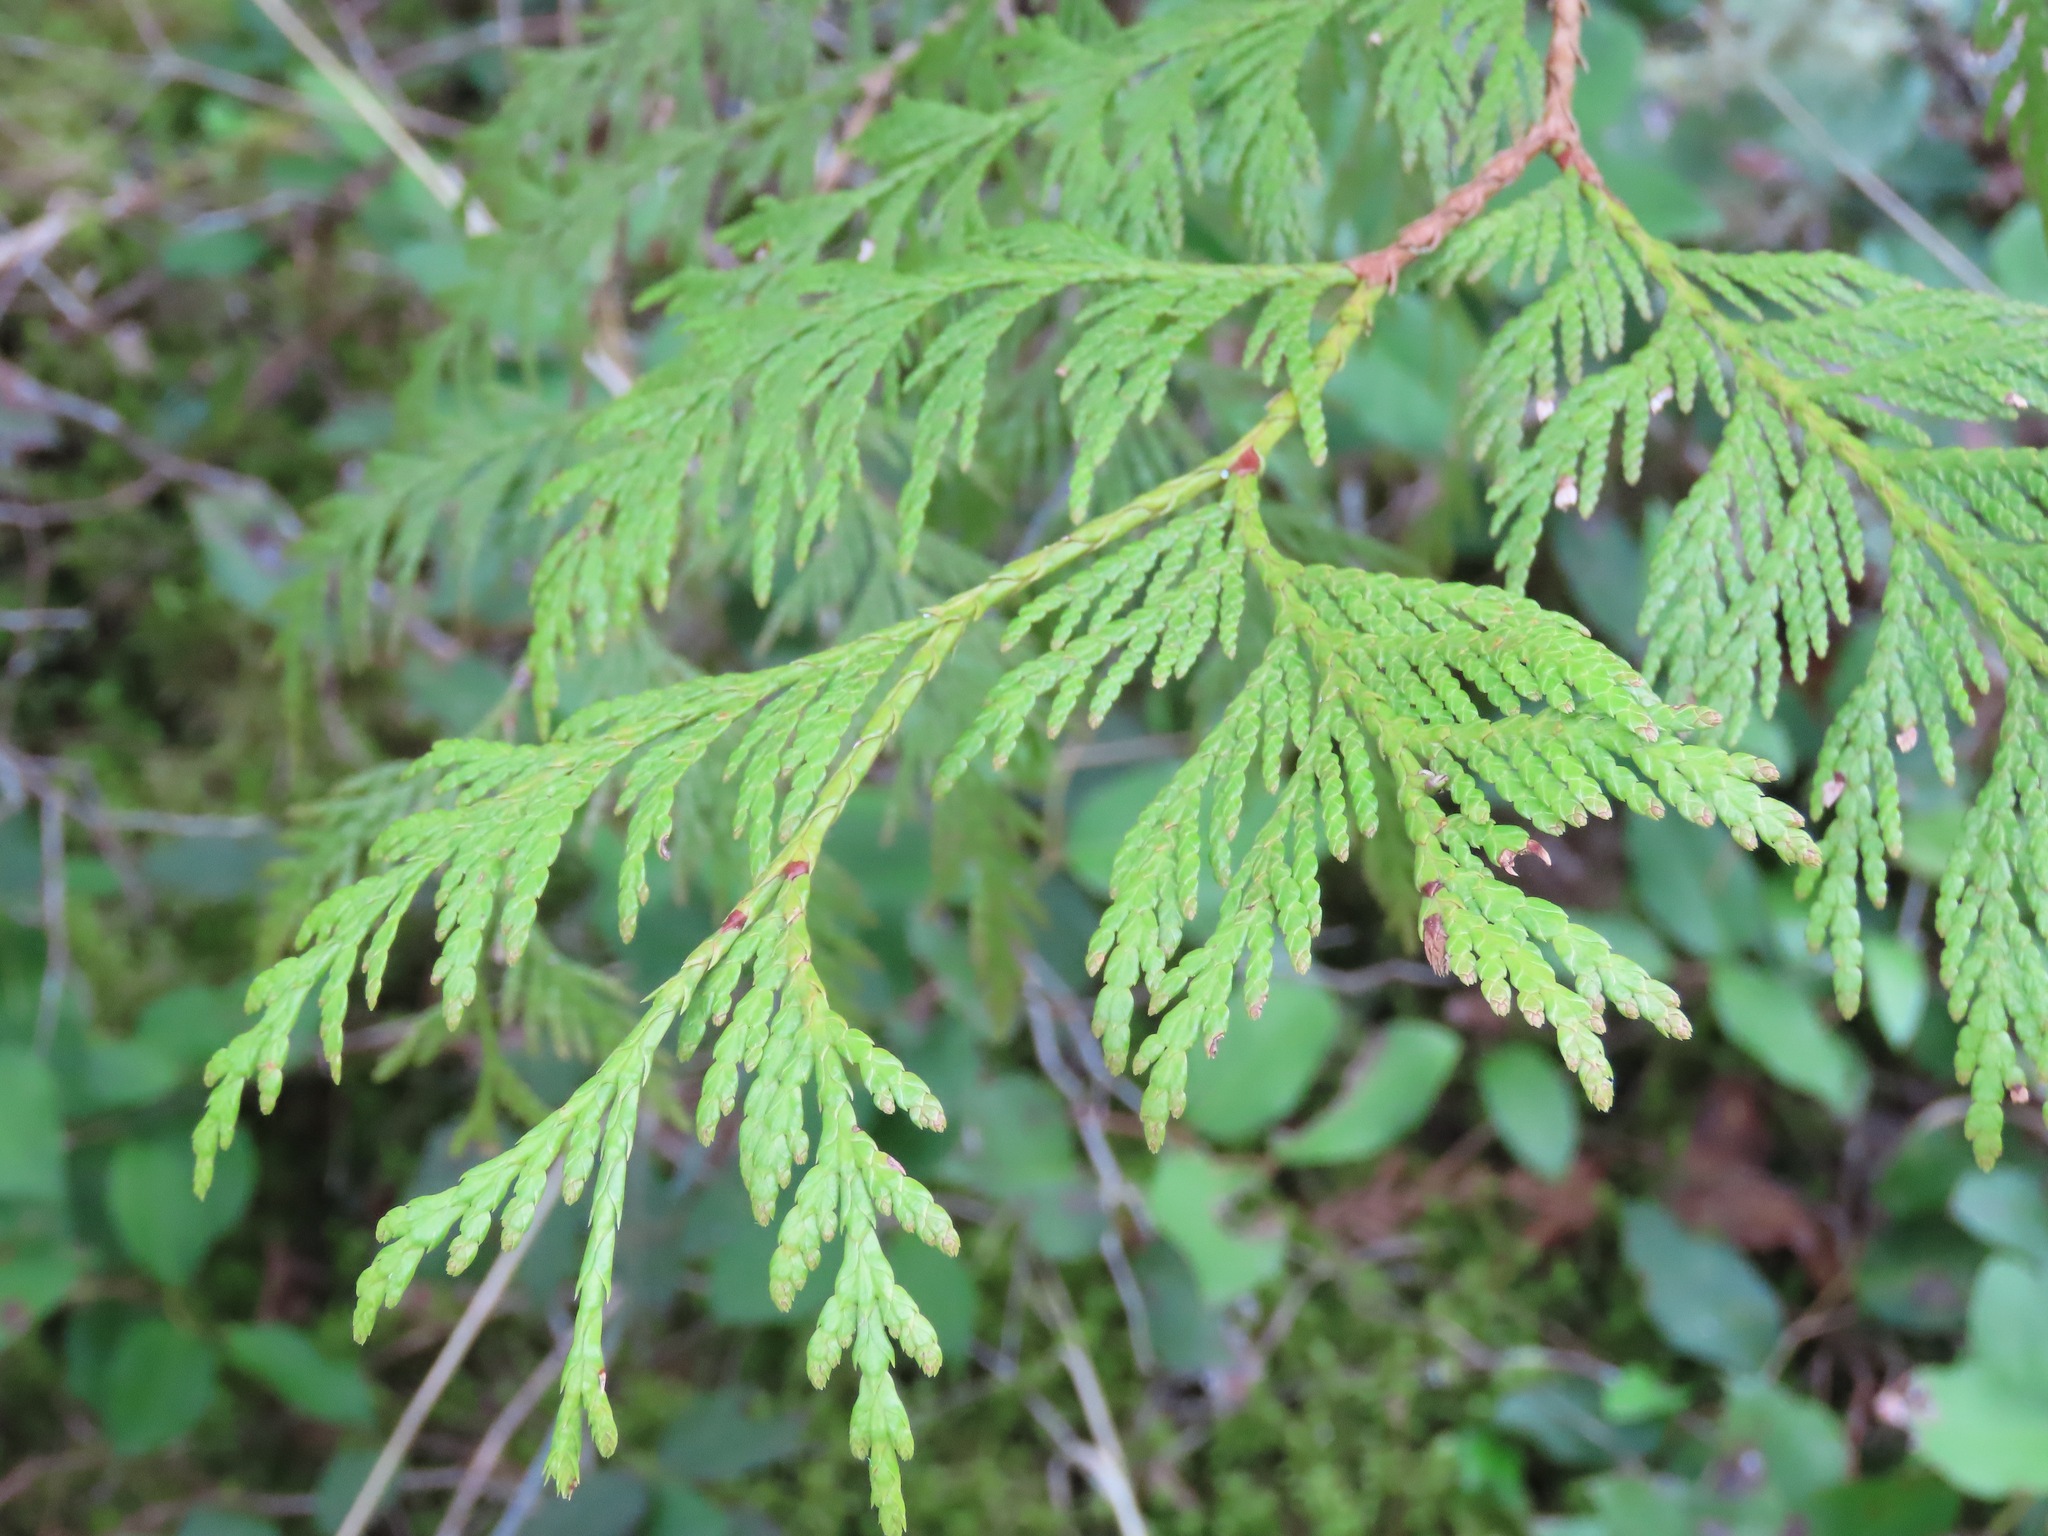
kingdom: Plantae
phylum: Tracheophyta
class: Pinopsida
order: Pinales
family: Cupressaceae
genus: Thuja
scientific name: Thuja plicata
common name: Western red-cedar
